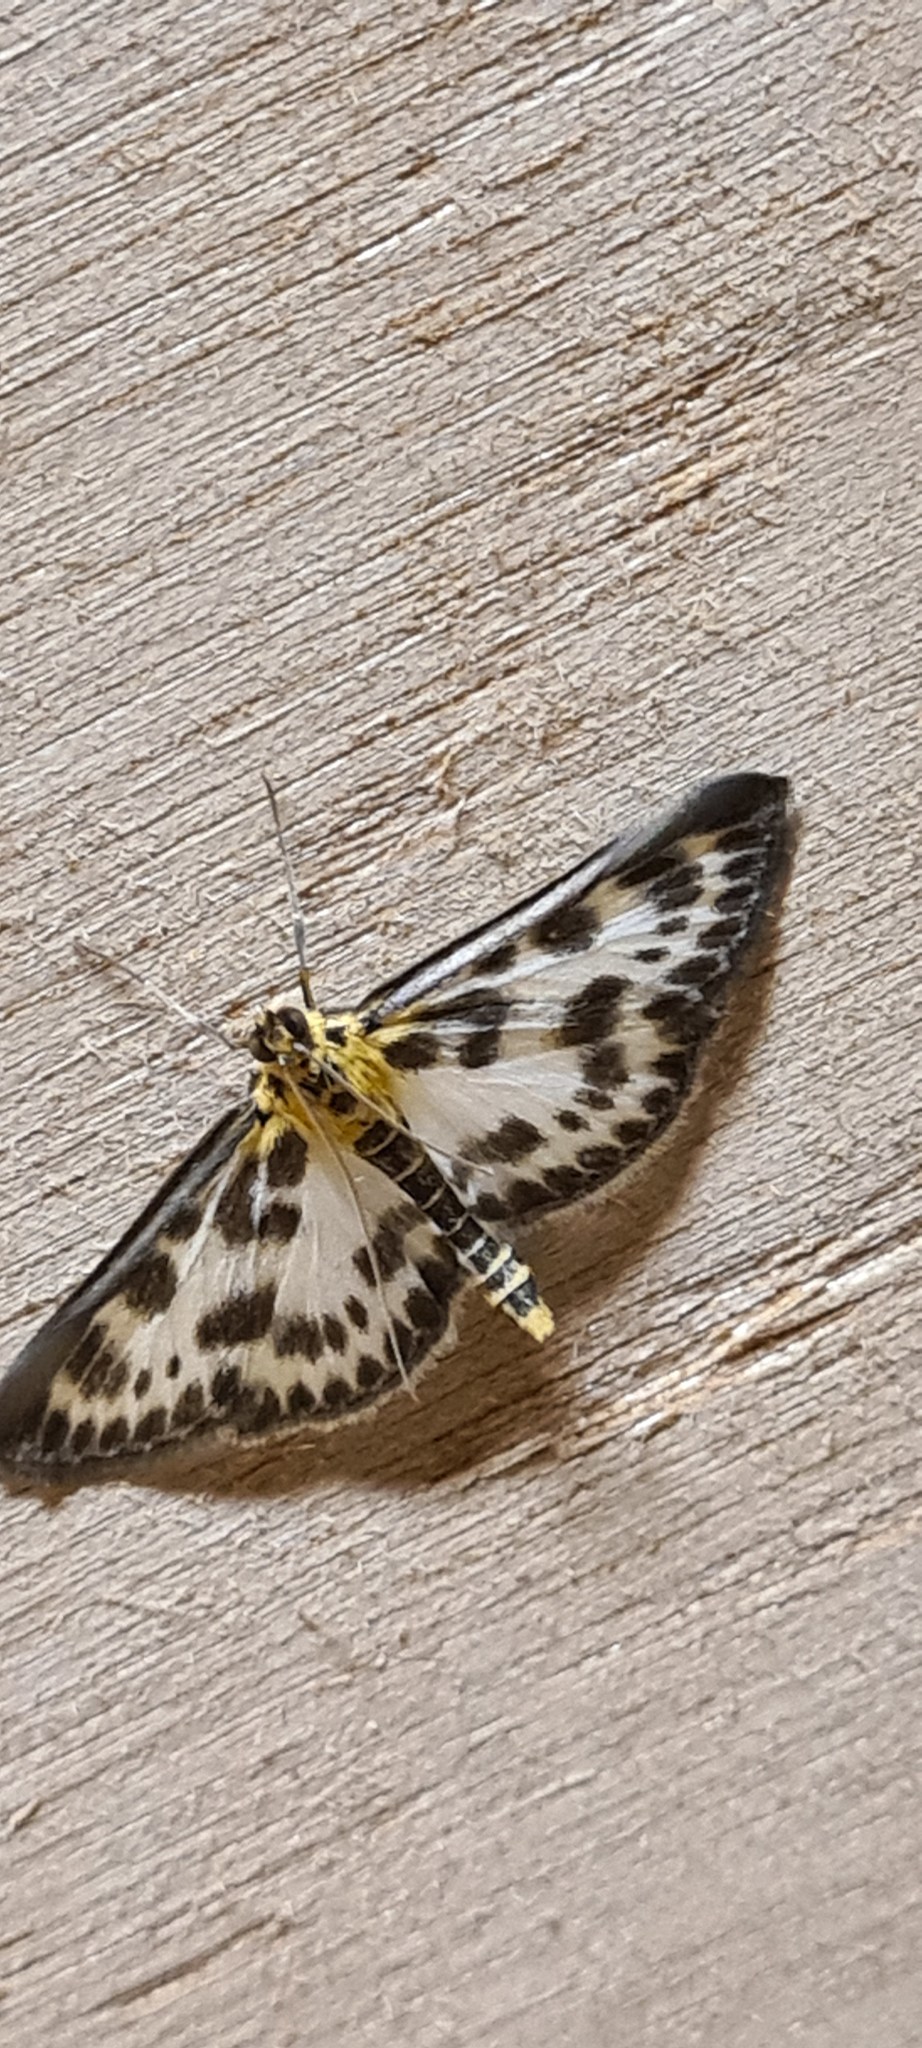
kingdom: Animalia
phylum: Arthropoda
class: Insecta
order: Lepidoptera
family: Crambidae
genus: Anania
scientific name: Anania hortulata
